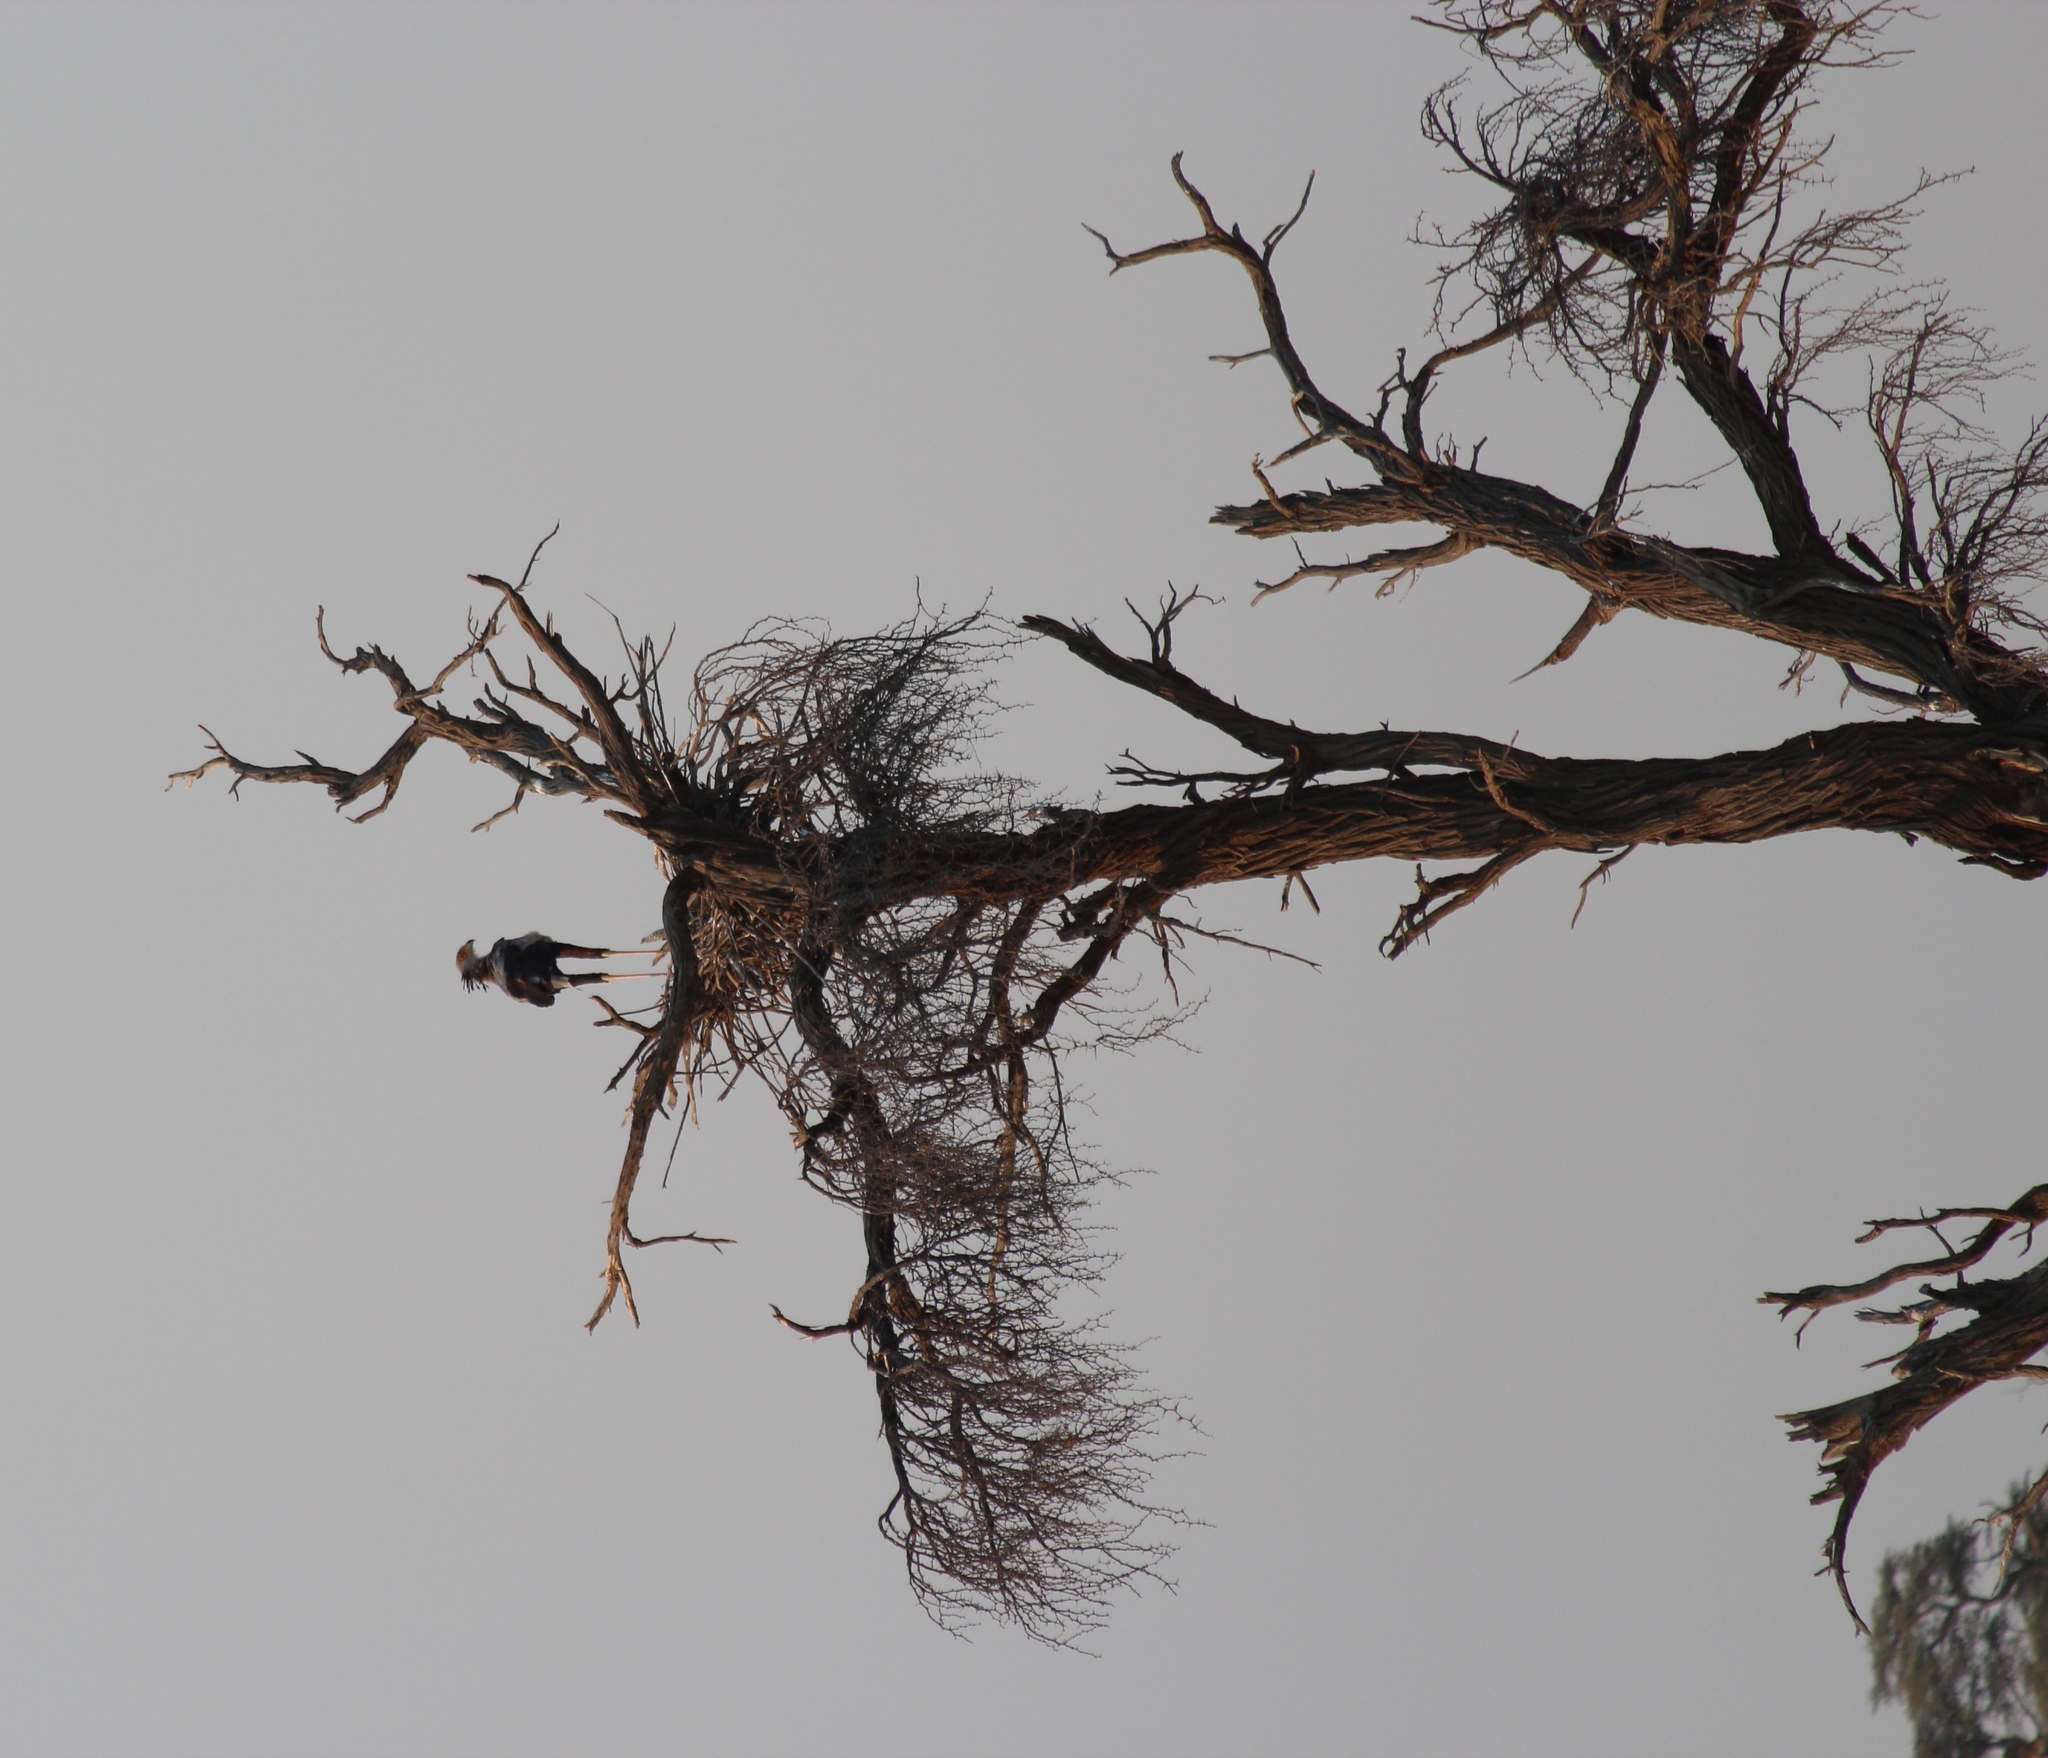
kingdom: Animalia
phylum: Chordata
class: Aves
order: Accipitriformes
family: Sagittariidae
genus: Sagittarius
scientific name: Sagittarius serpentarius
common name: Secretarybird
